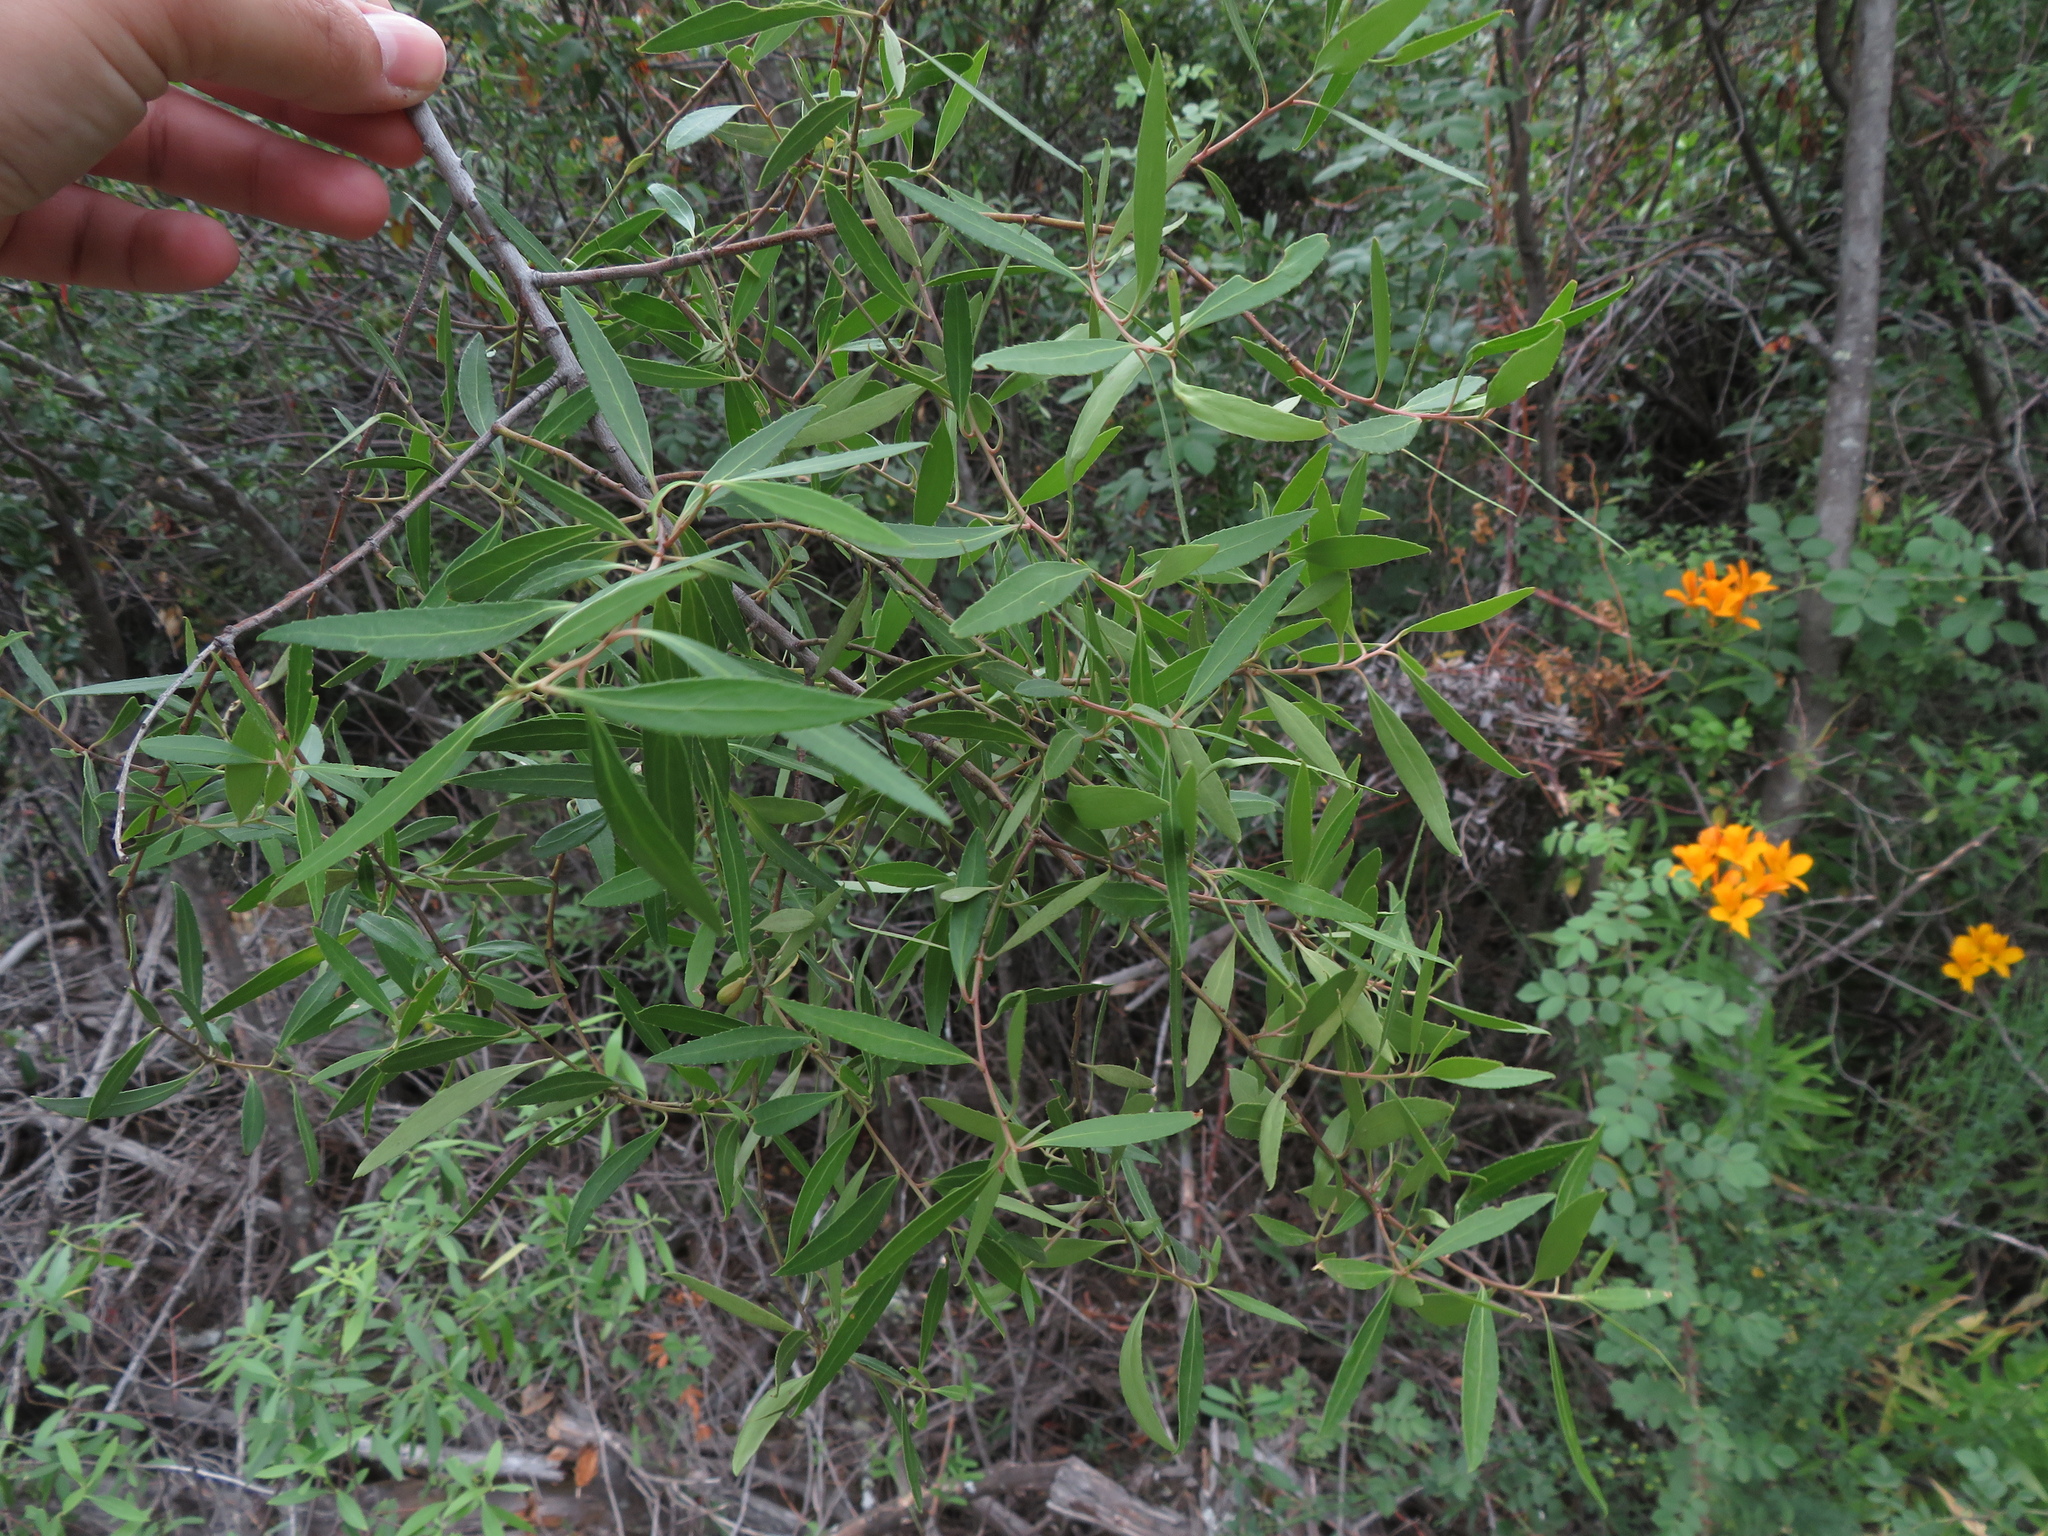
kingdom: Plantae
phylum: Tracheophyta
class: Magnoliopsida
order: Celastrales
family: Celastraceae
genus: Maytenus
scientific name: Maytenus boaria
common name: Mayten
